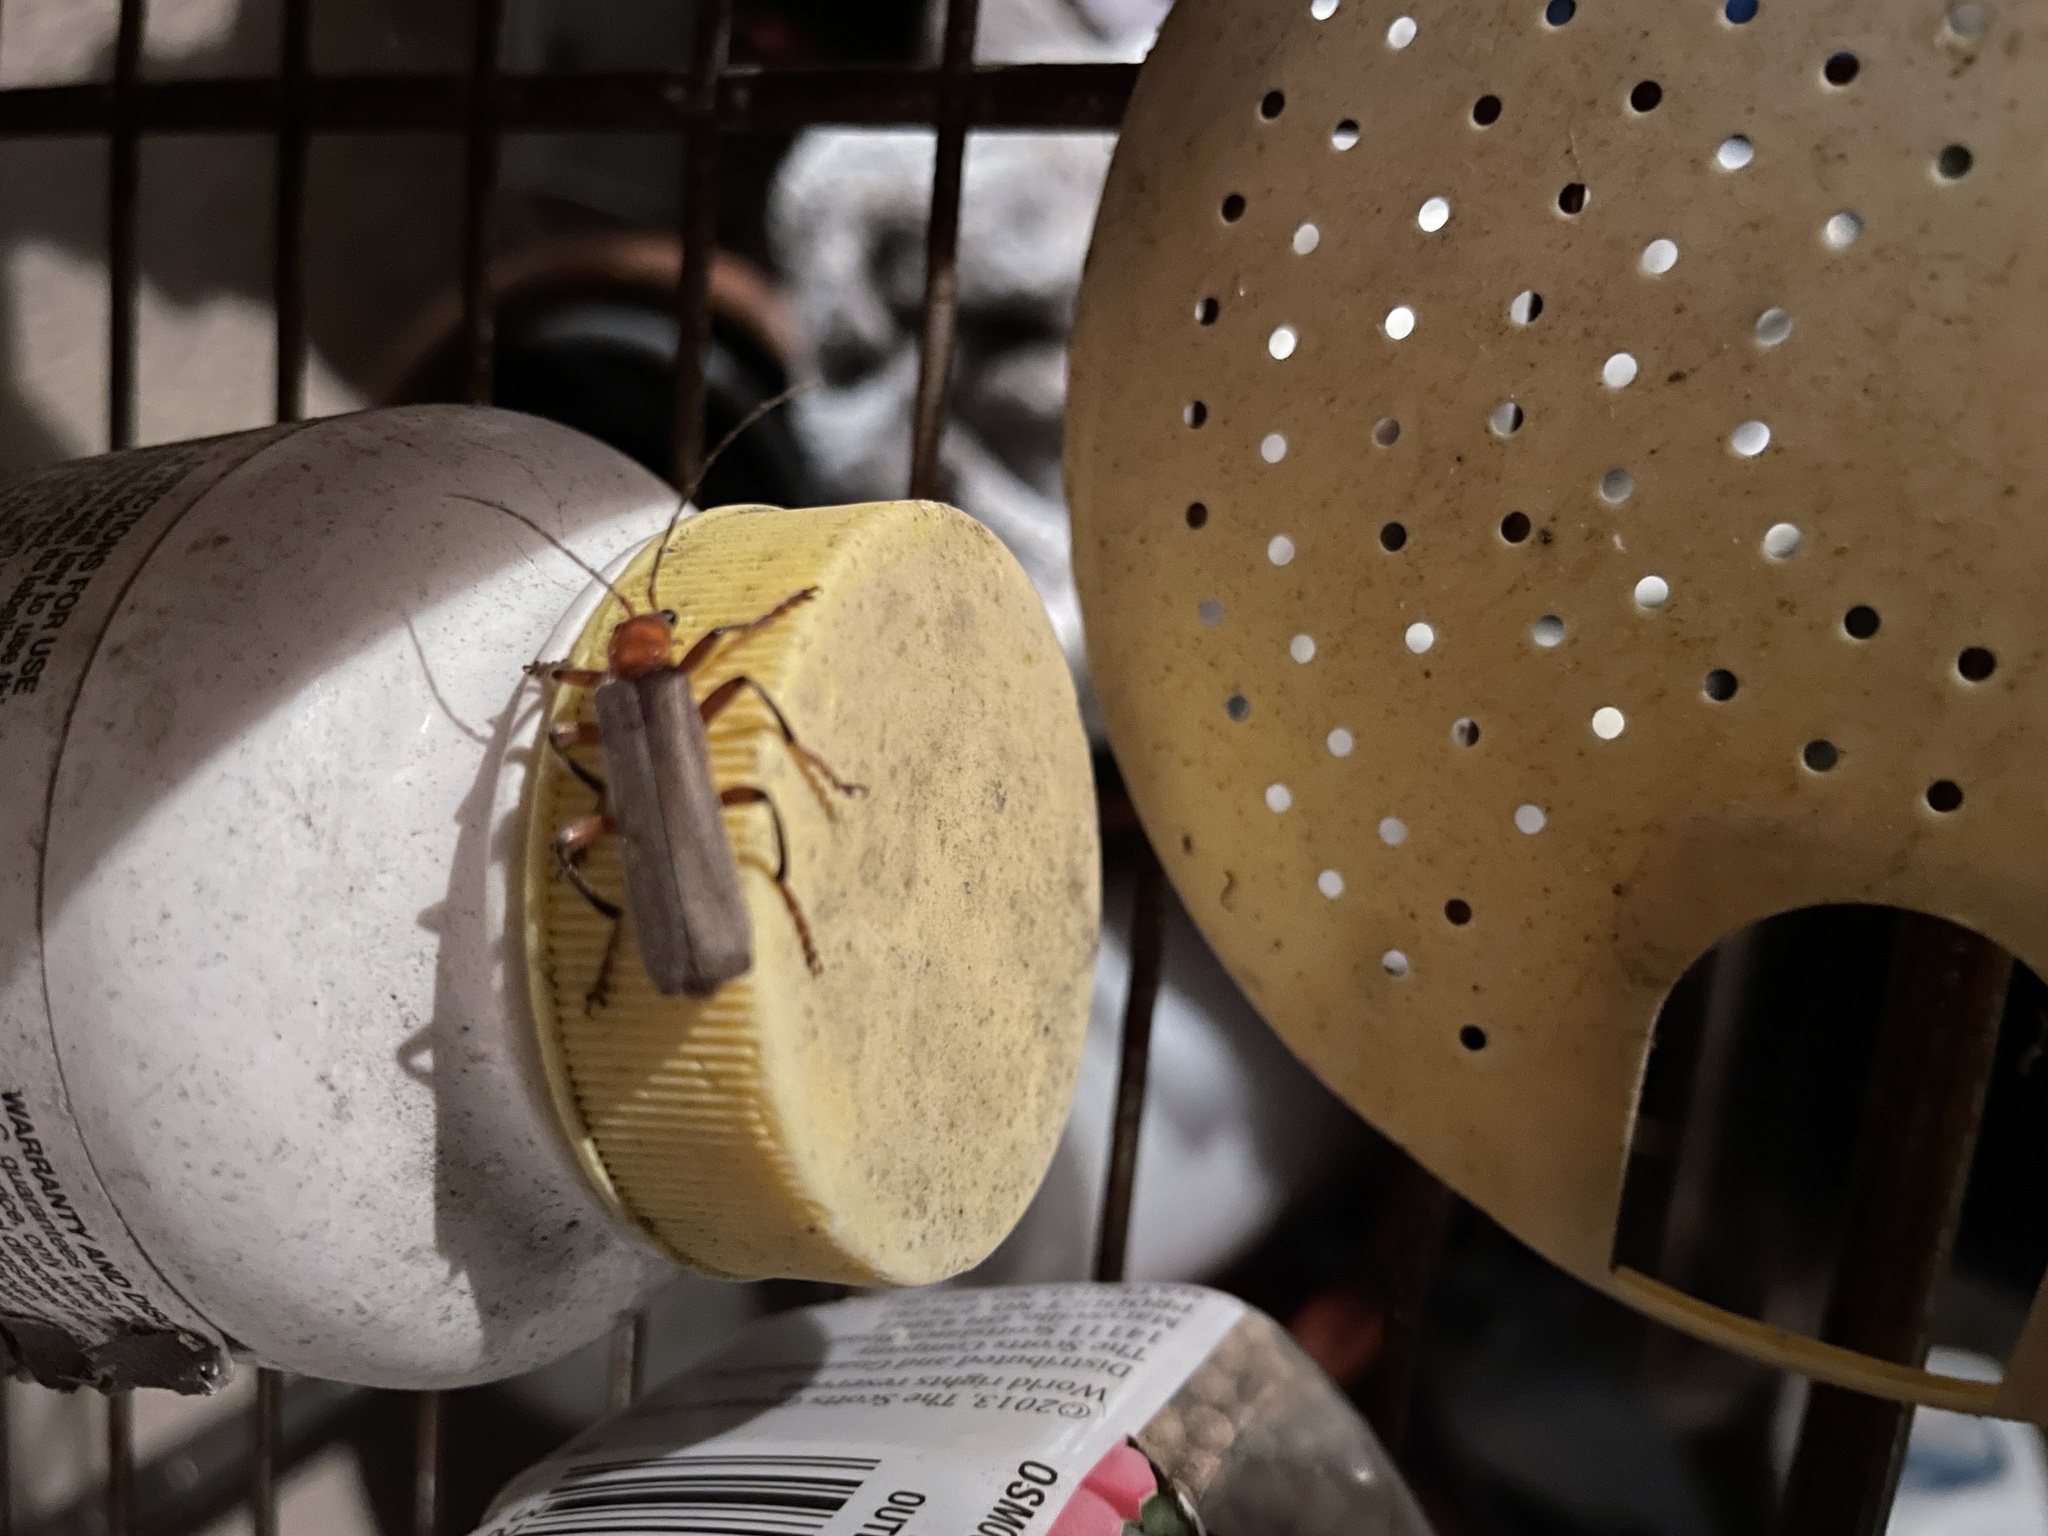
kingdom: Animalia
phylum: Arthropoda
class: Insecta
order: Coleoptera
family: Cantharidae
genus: Pacificanthia
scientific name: Pacificanthia consors
